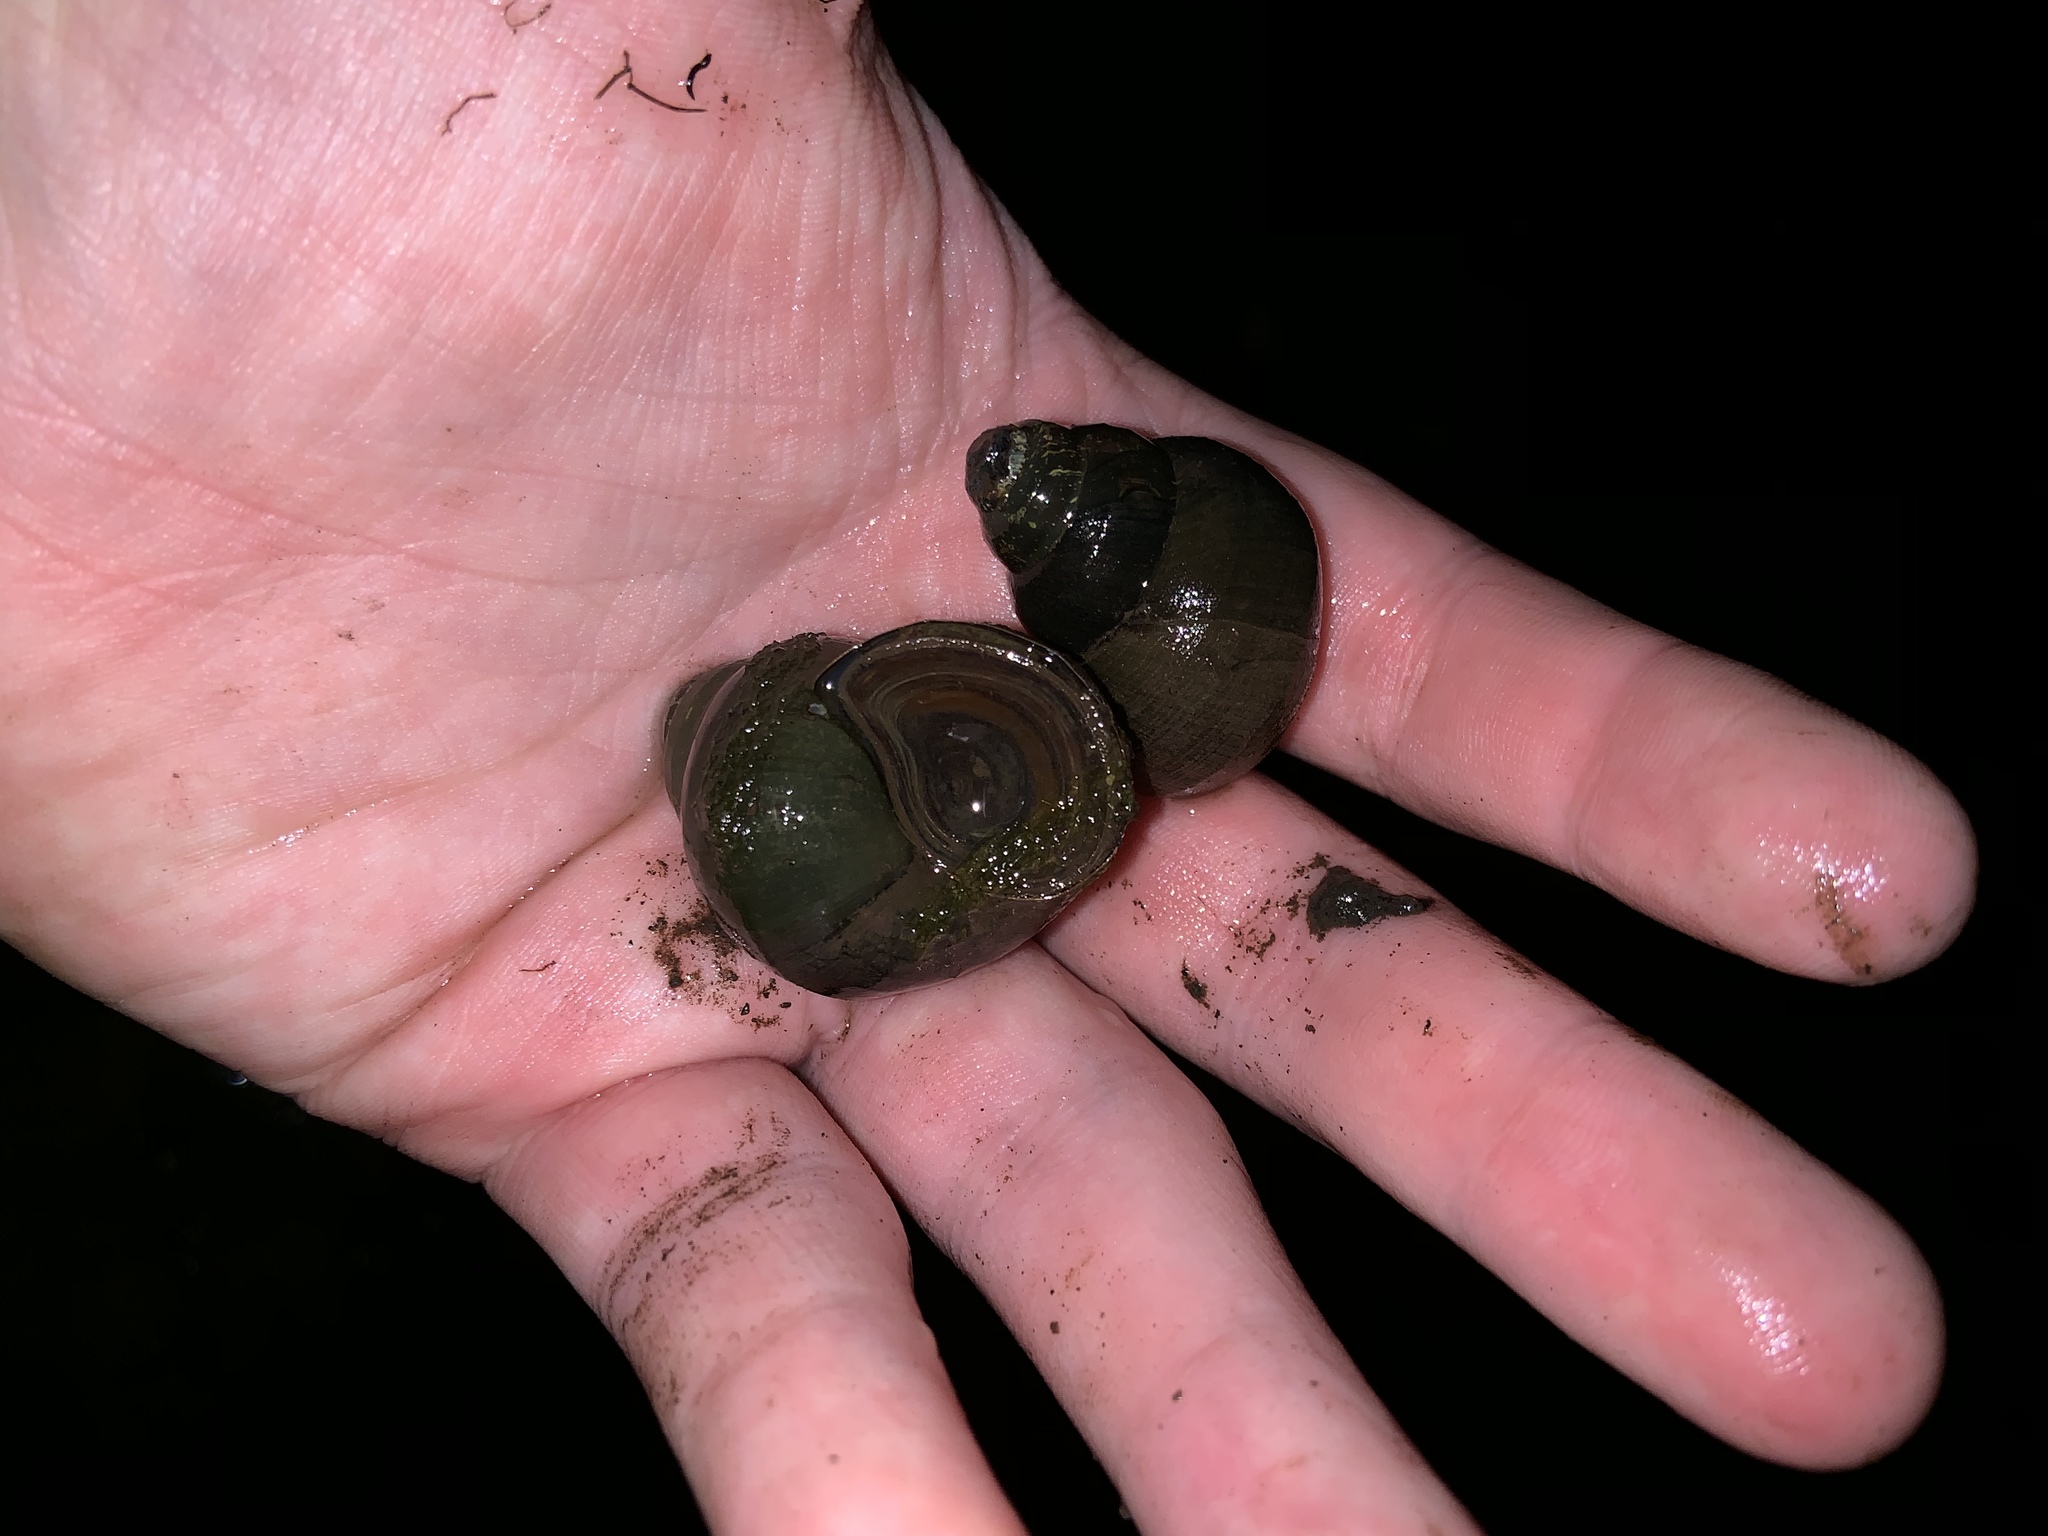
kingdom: Animalia
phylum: Mollusca
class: Gastropoda
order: Architaenioglossa
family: Viviparidae
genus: Cipangopaludina
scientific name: Cipangopaludina chinensis
